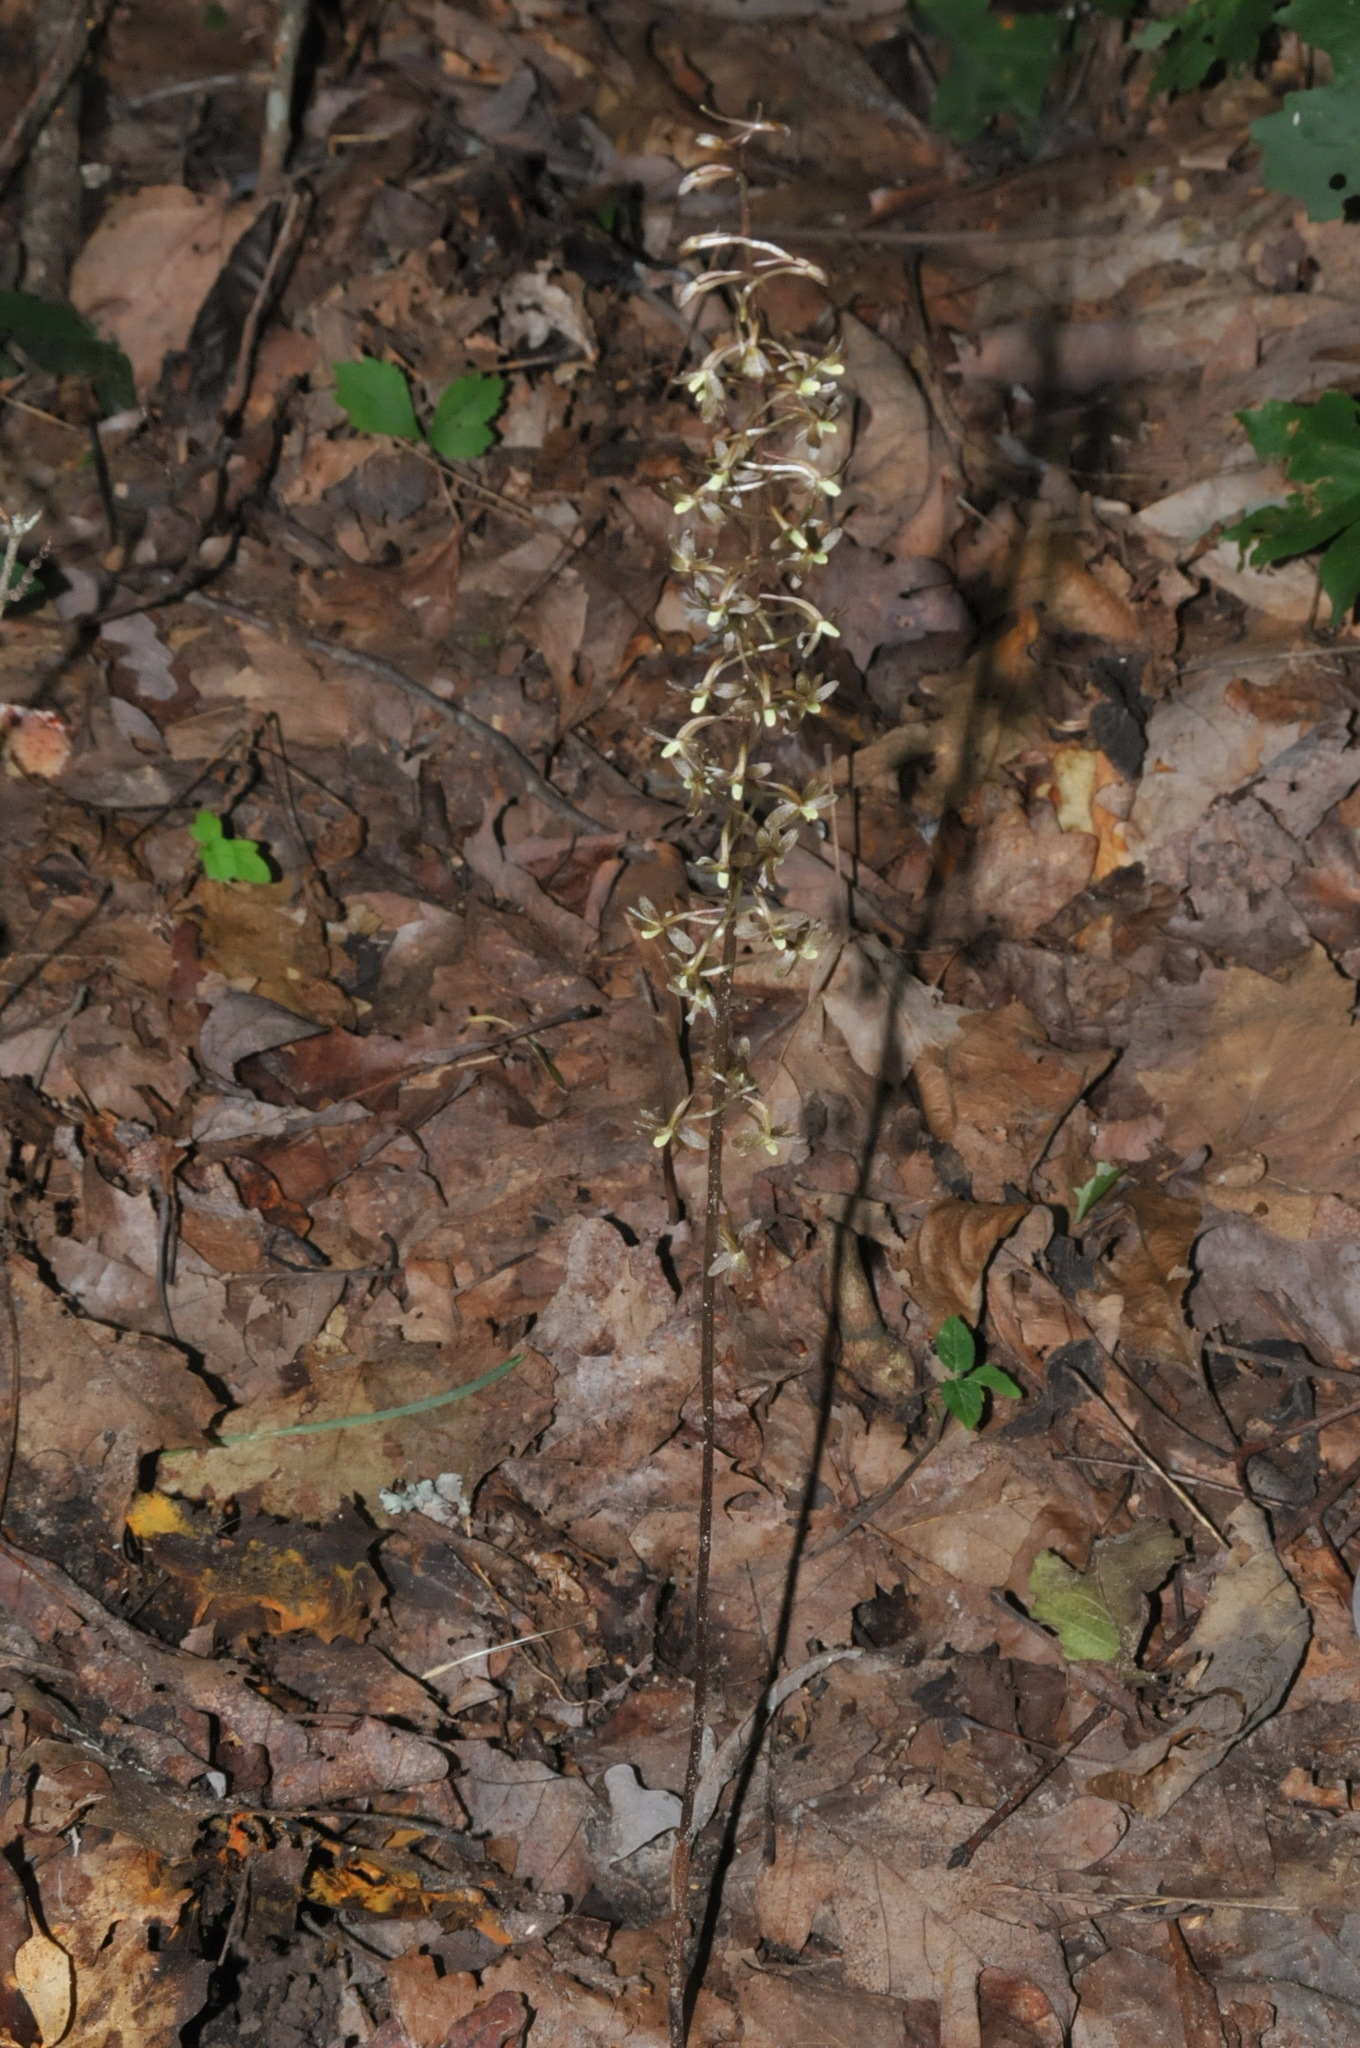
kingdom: Plantae
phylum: Tracheophyta
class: Liliopsida
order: Asparagales
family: Orchidaceae
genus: Tipularia
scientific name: Tipularia discolor
